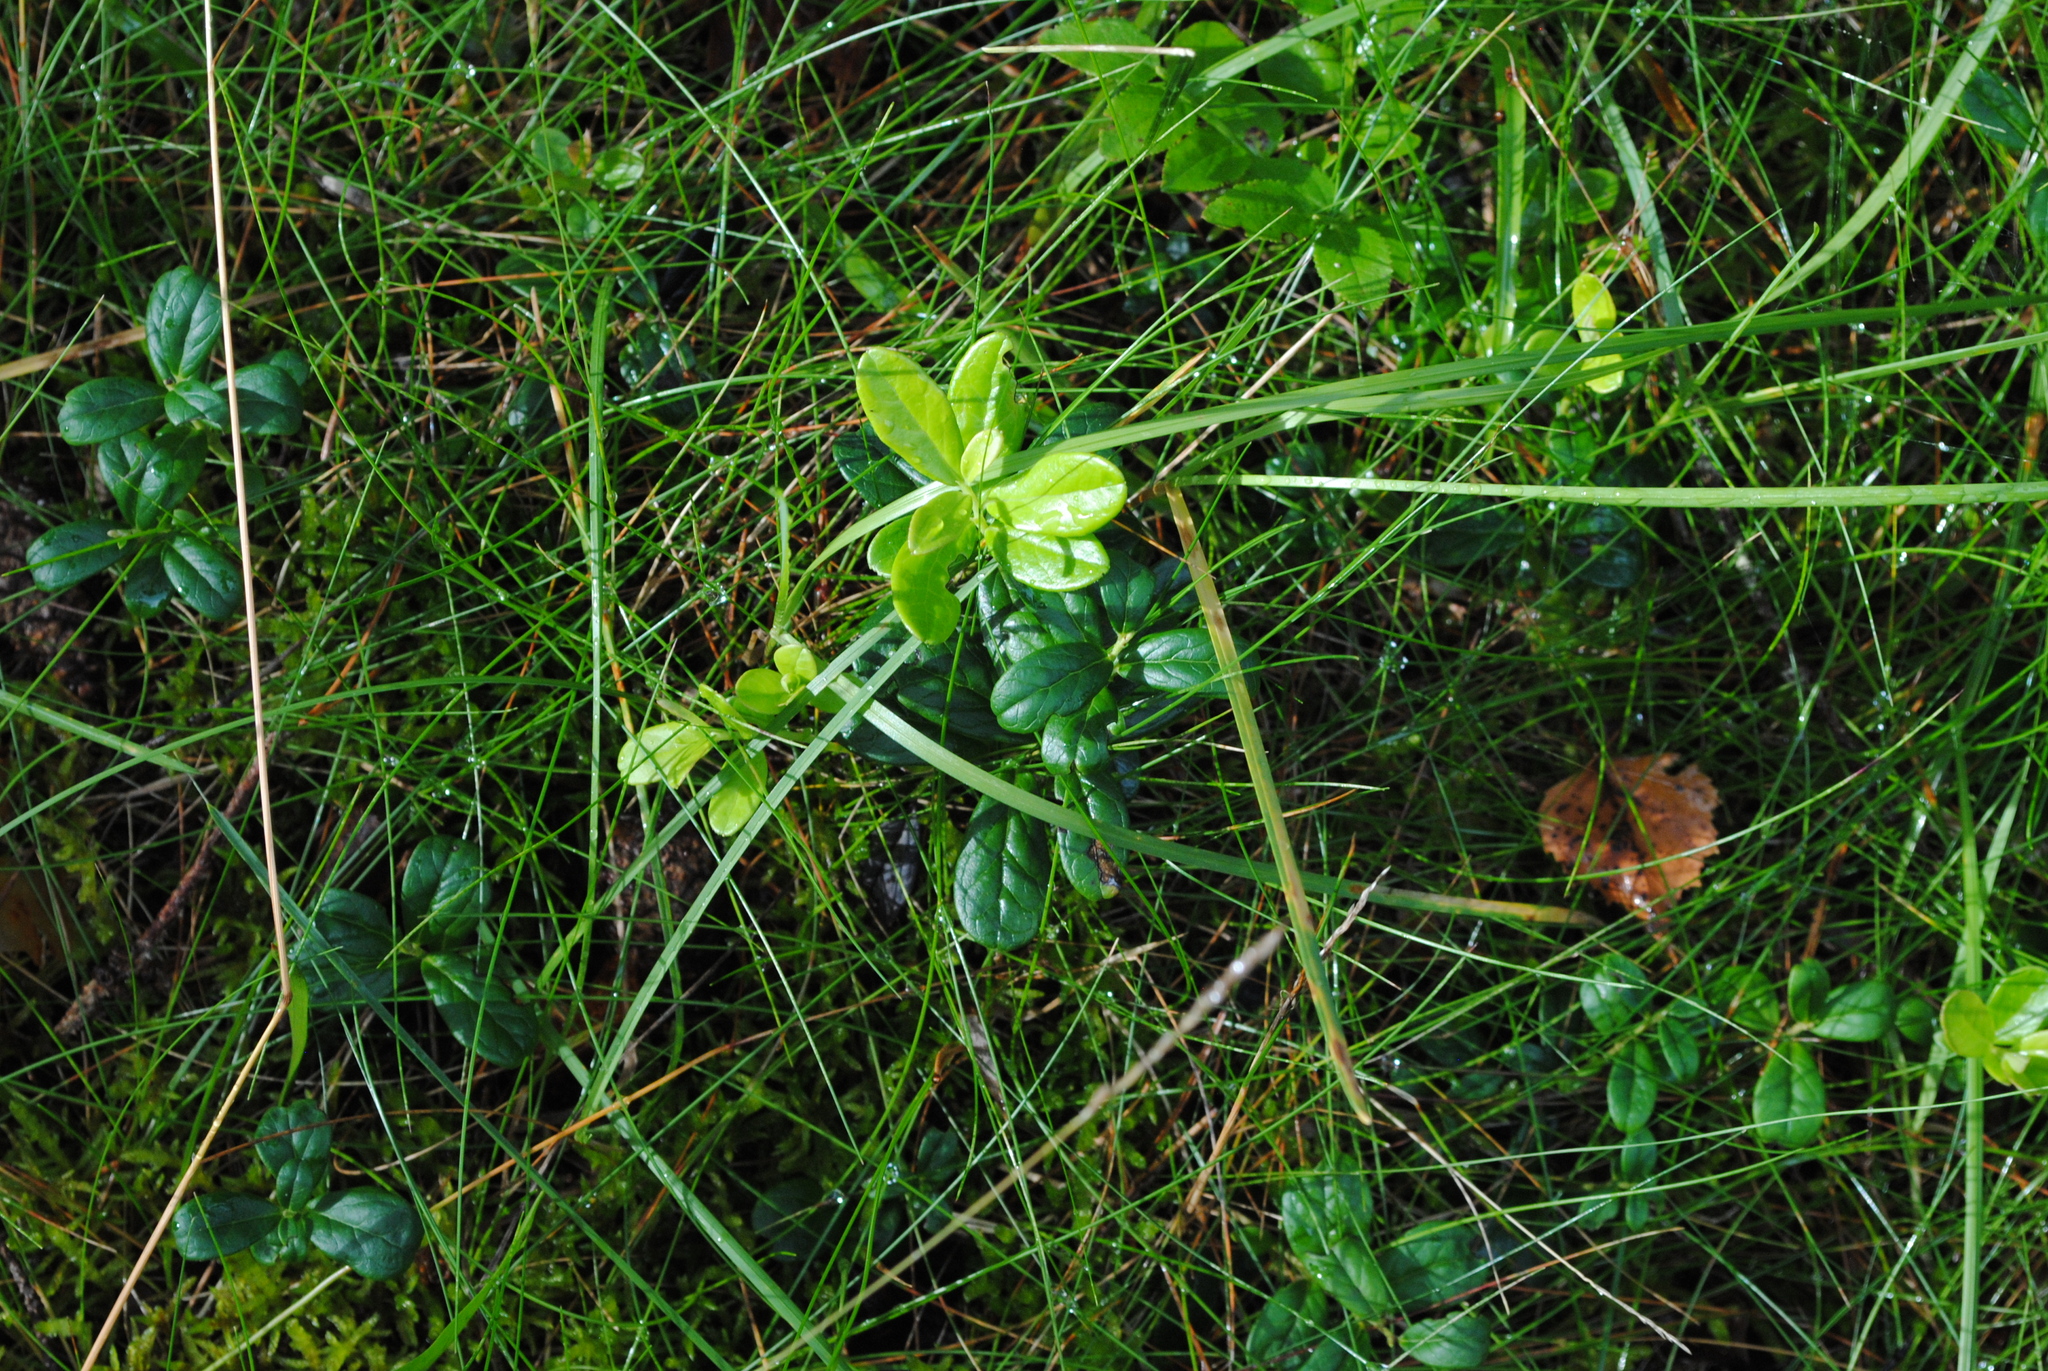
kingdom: Plantae
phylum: Tracheophyta
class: Magnoliopsida
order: Ericales
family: Ericaceae
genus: Vaccinium
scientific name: Vaccinium vitis-idaea
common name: Cowberry
